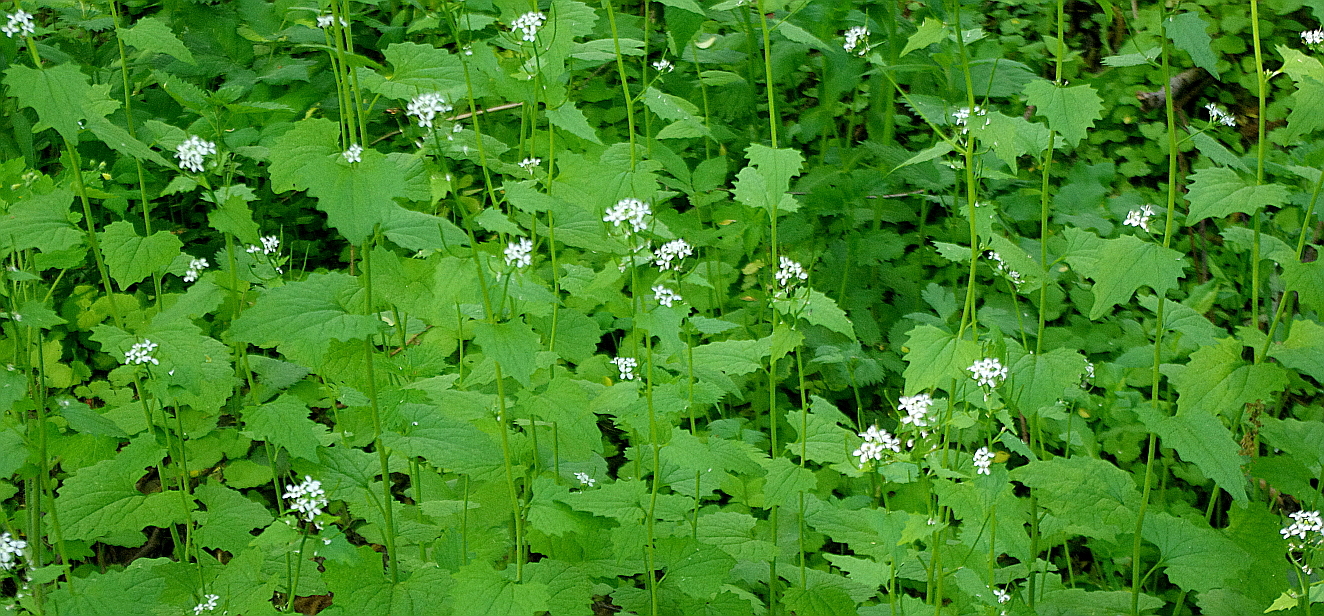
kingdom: Plantae
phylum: Tracheophyta
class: Magnoliopsida
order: Brassicales
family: Brassicaceae
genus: Alliaria
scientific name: Alliaria petiolata
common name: Garlic mustard
